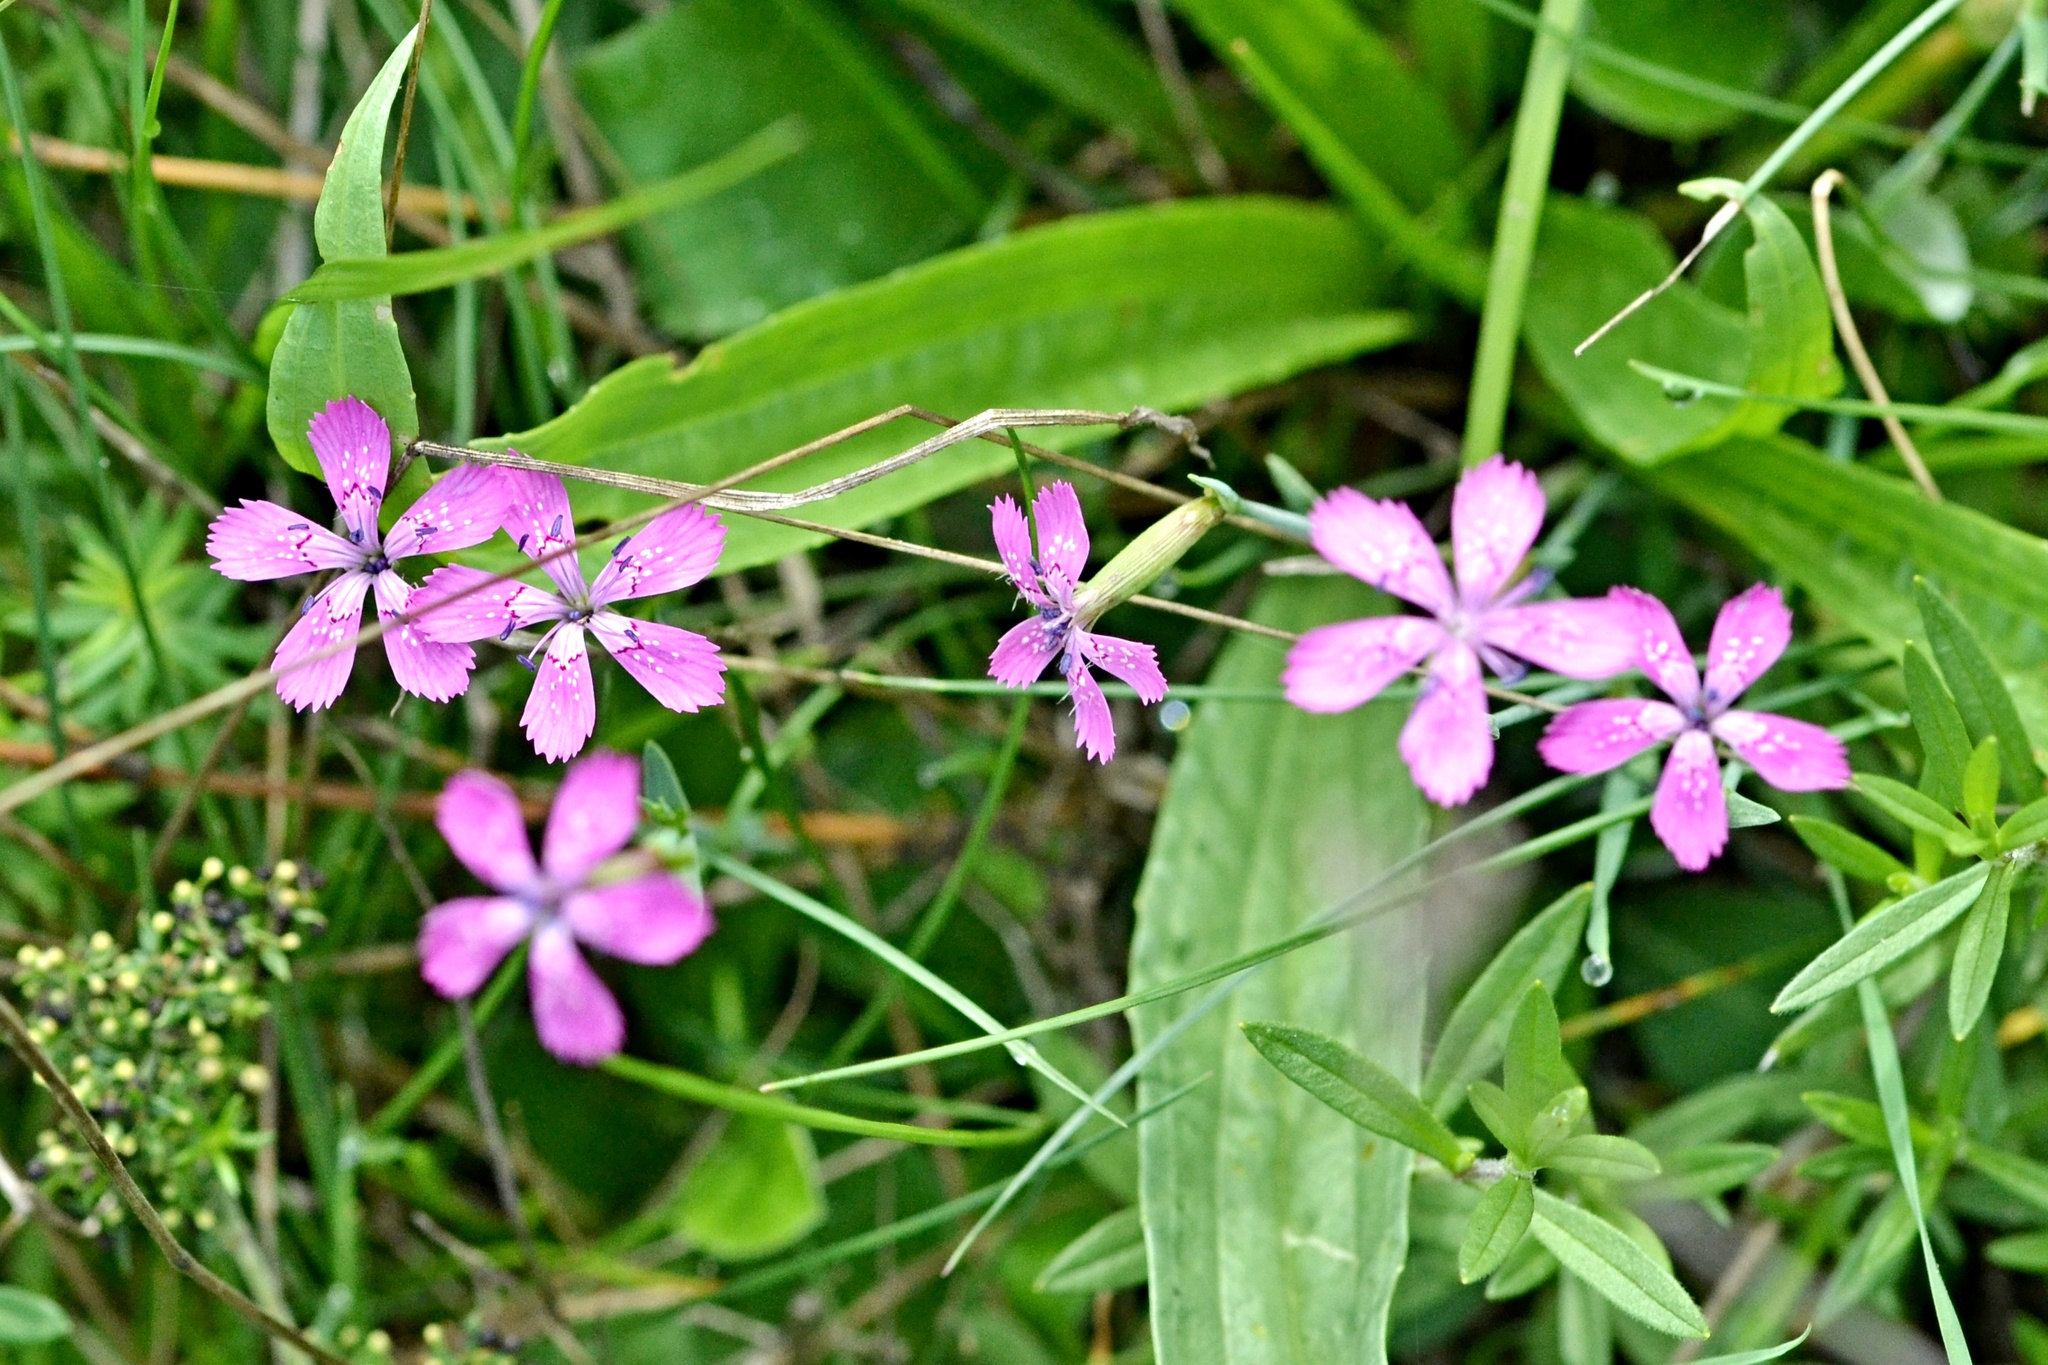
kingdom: Plantae
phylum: Tracheophyta
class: Magnoliopsida
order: Caryophyllales
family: Caryophyllaceae
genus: Dianthus
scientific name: Dianthus deltoides
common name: Maiden pink
